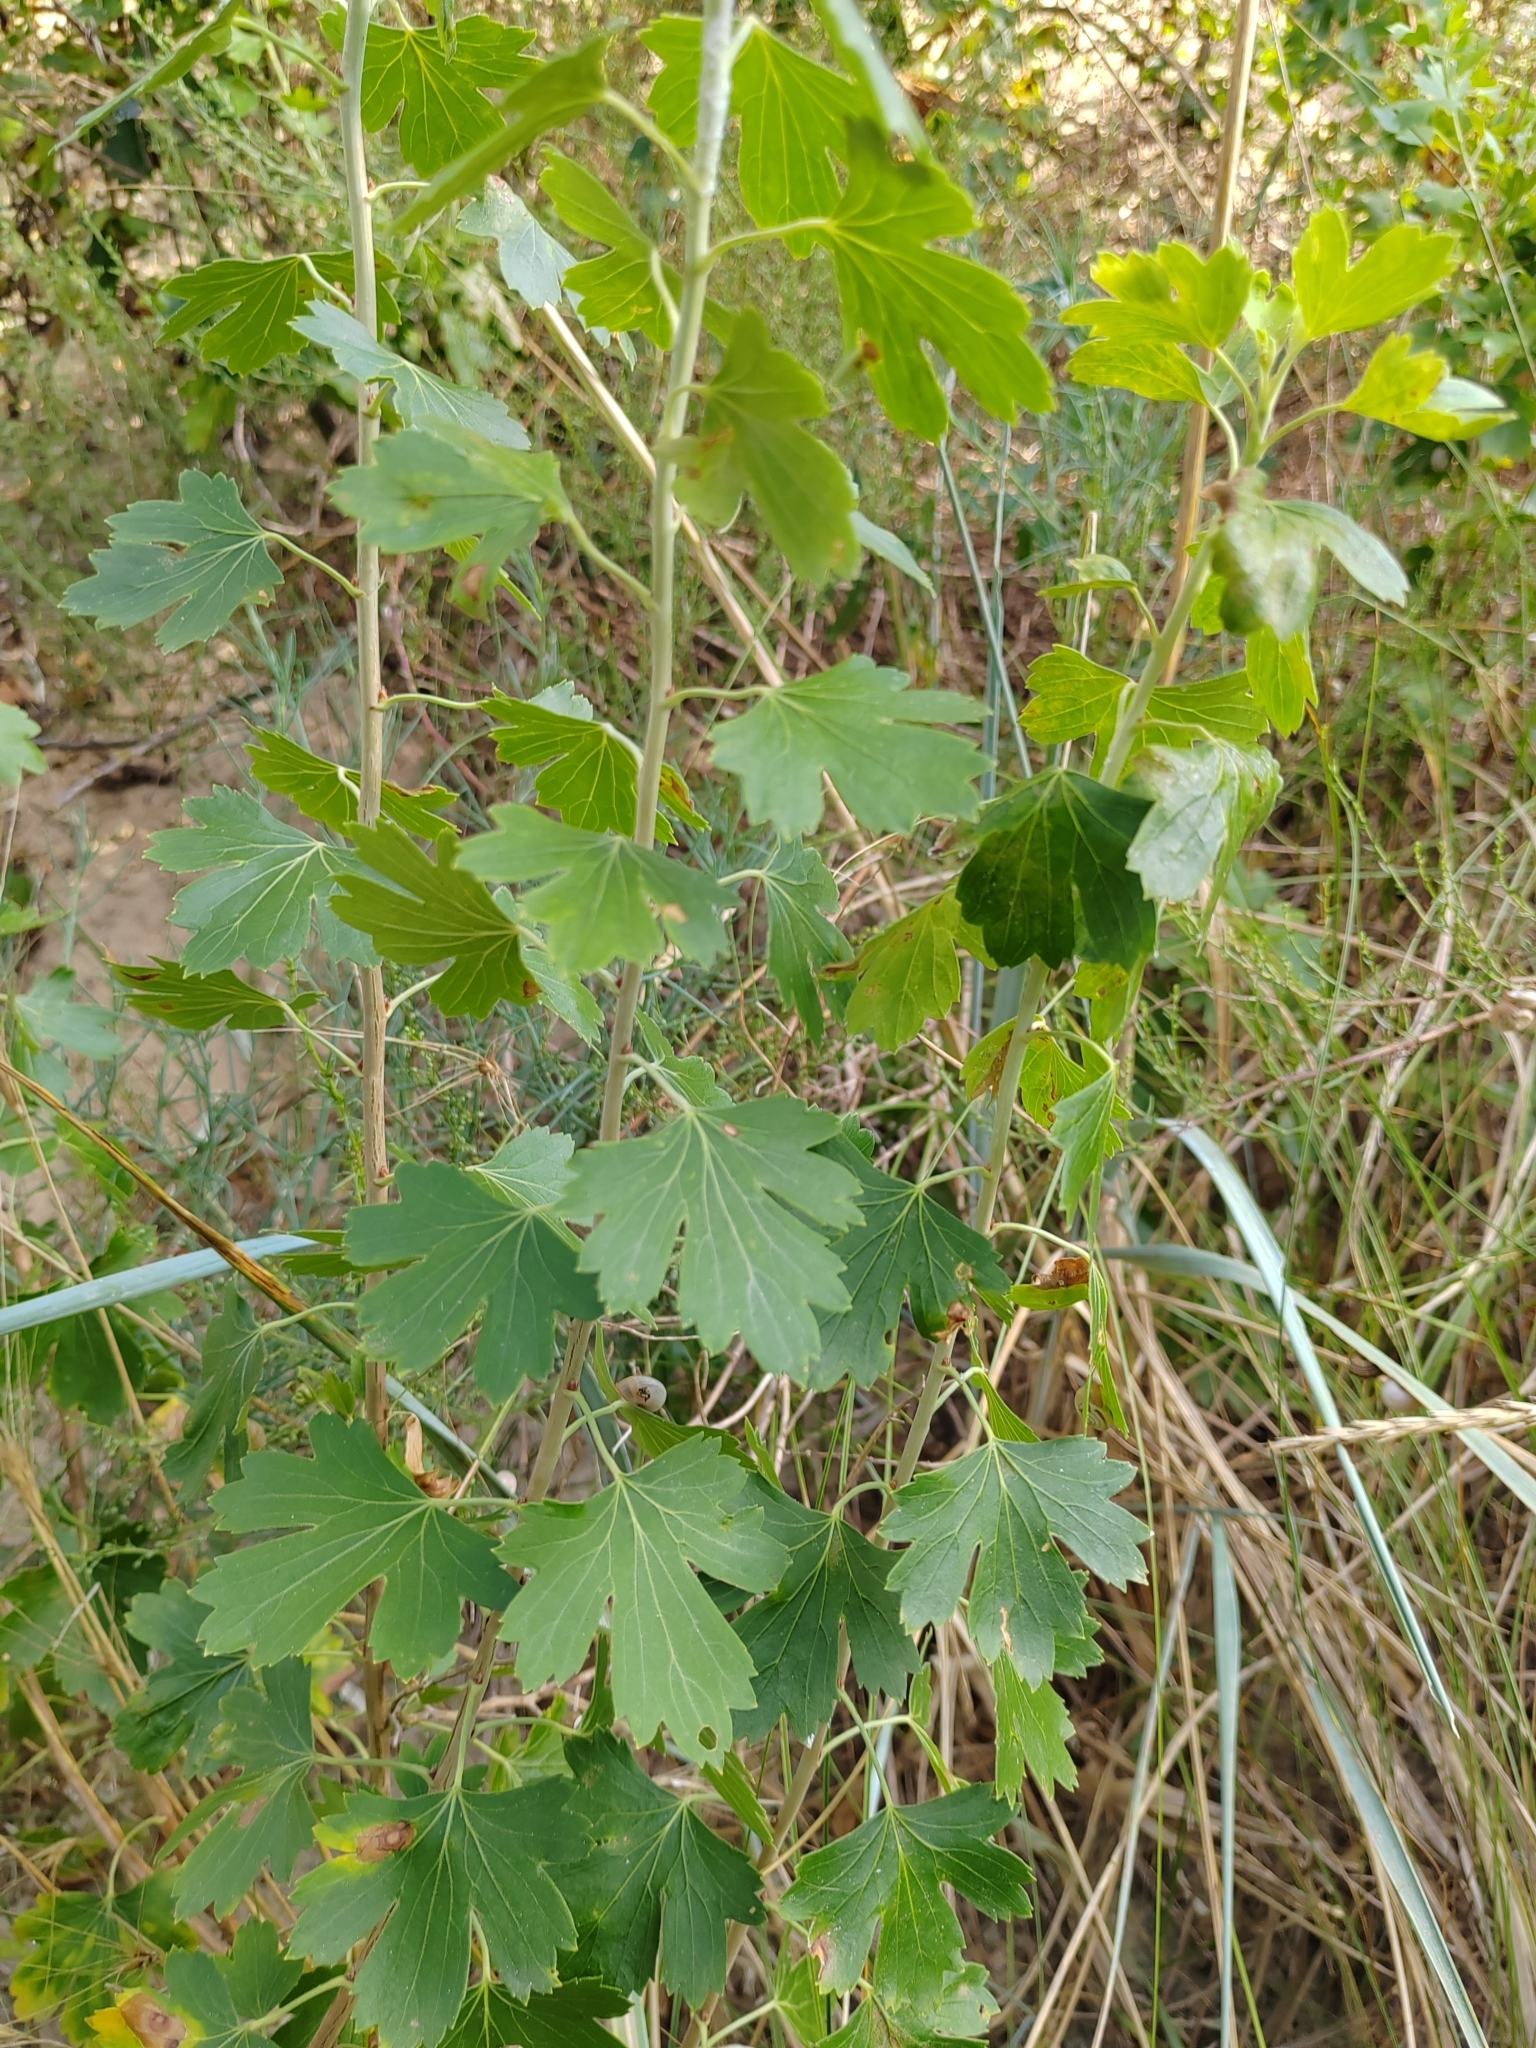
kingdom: Plantae
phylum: Tracheophyta
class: Magnoliopsida
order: Saxifragales
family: Grossulariaceae
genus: Ribes
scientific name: Ribes aureum
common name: Golden currant
